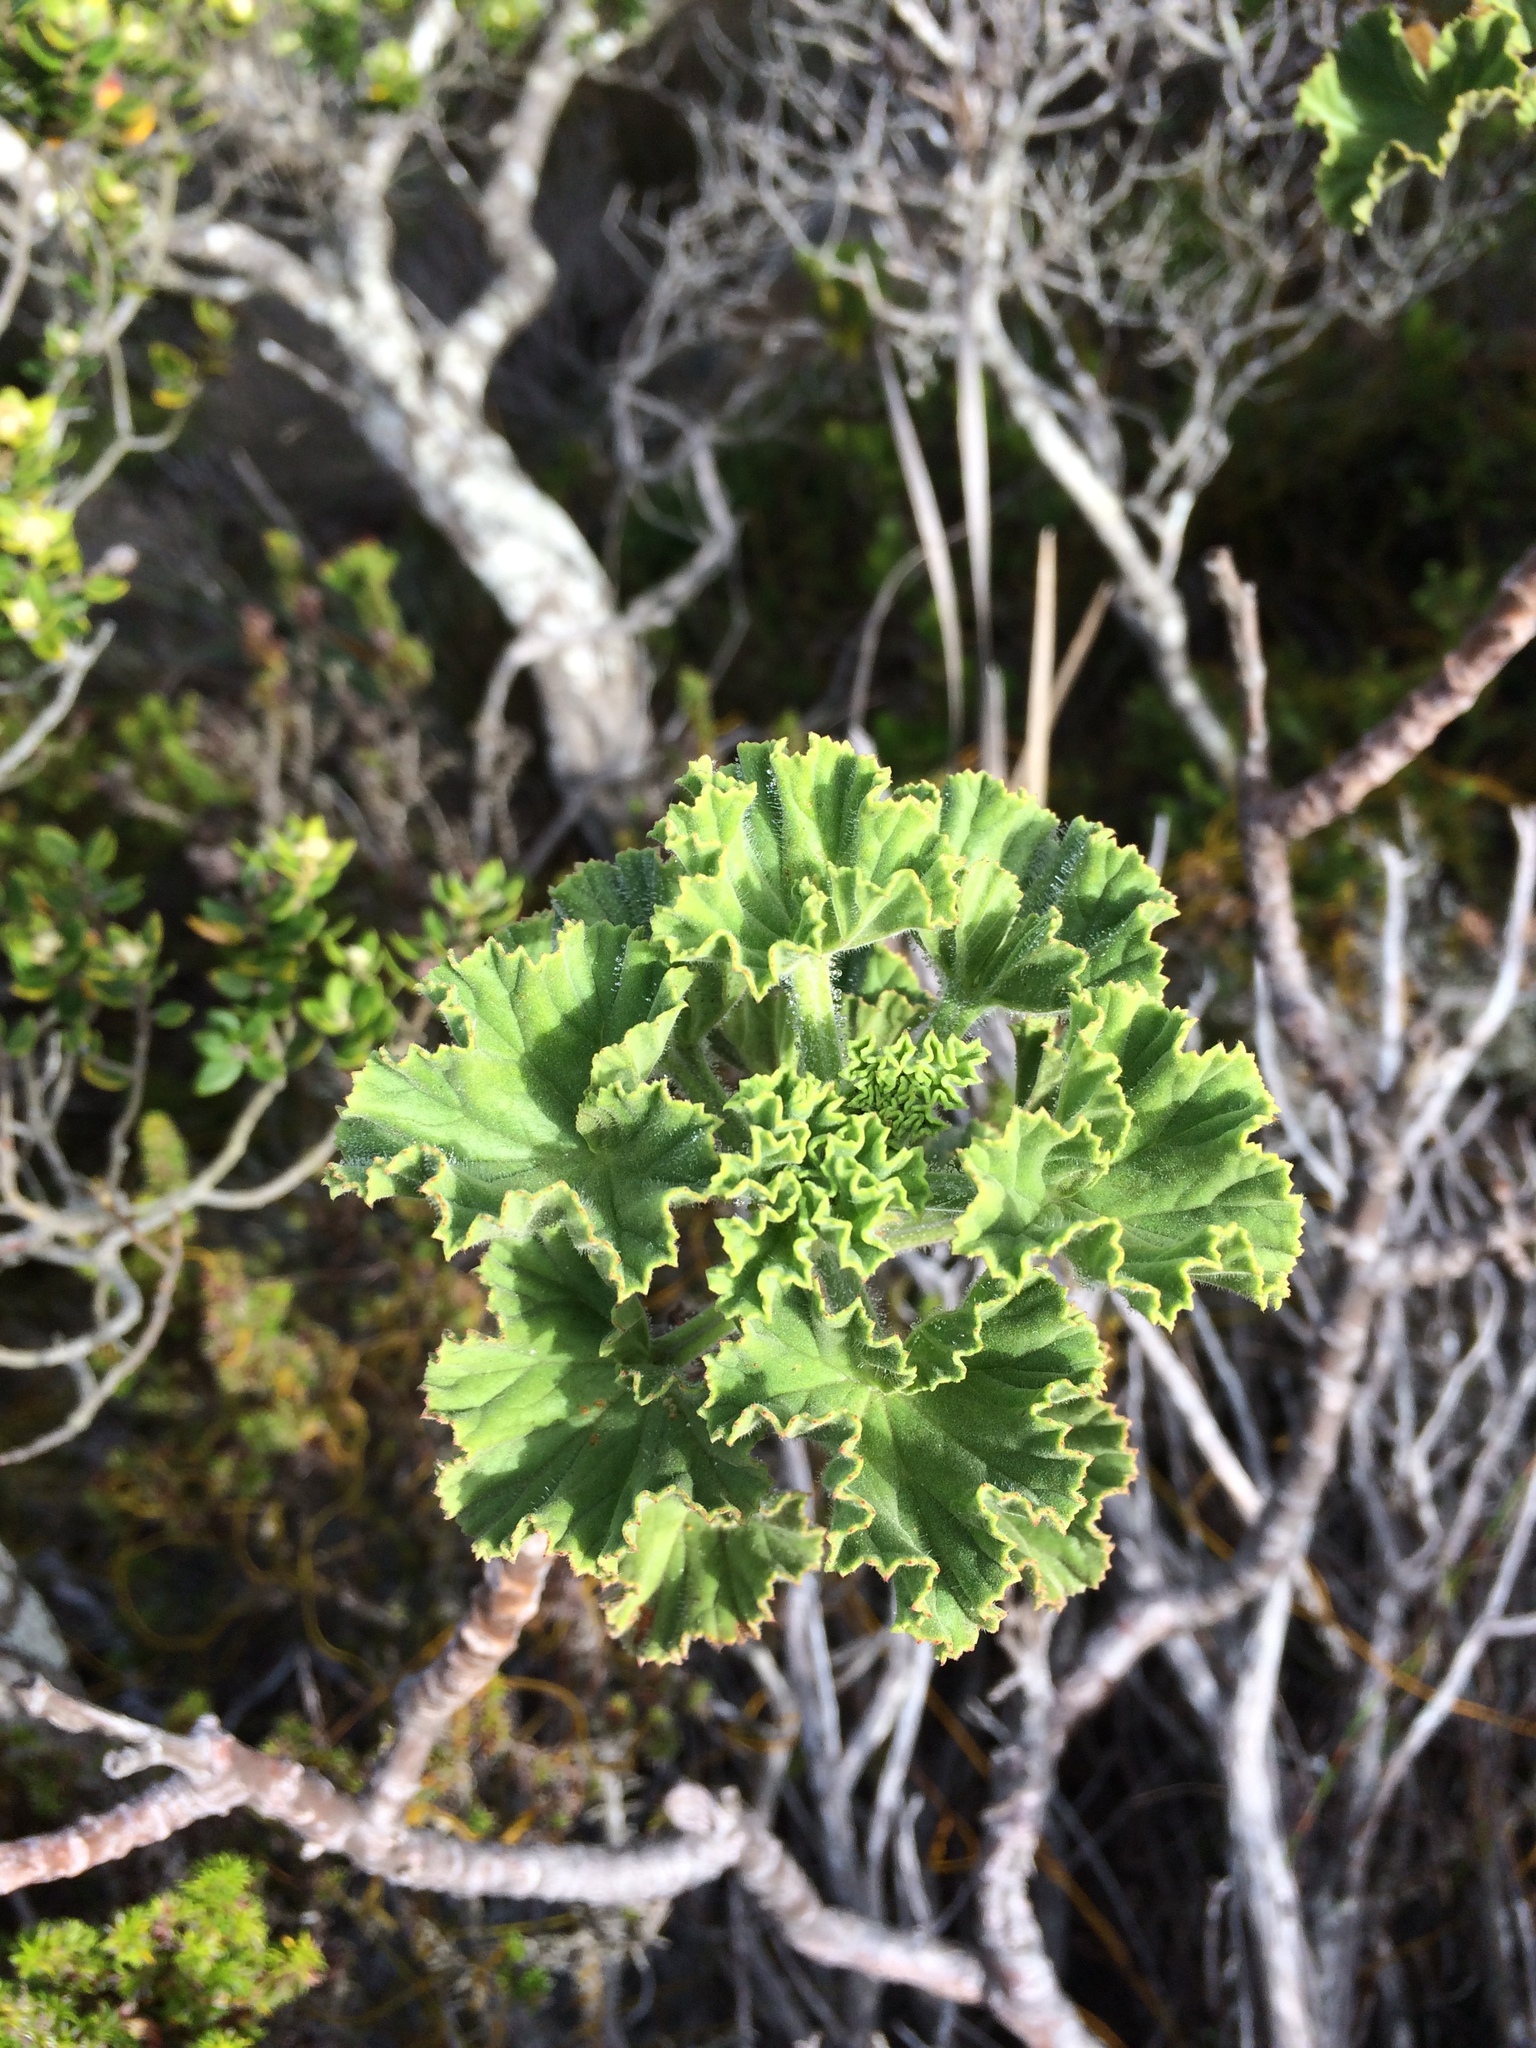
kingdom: Plantae
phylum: Tracheophyta
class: Magnoliopsida
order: Geraniales
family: Geraniaceae
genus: Pelargonium
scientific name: Pelargonium cucullatum
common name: Tree pelargonium
